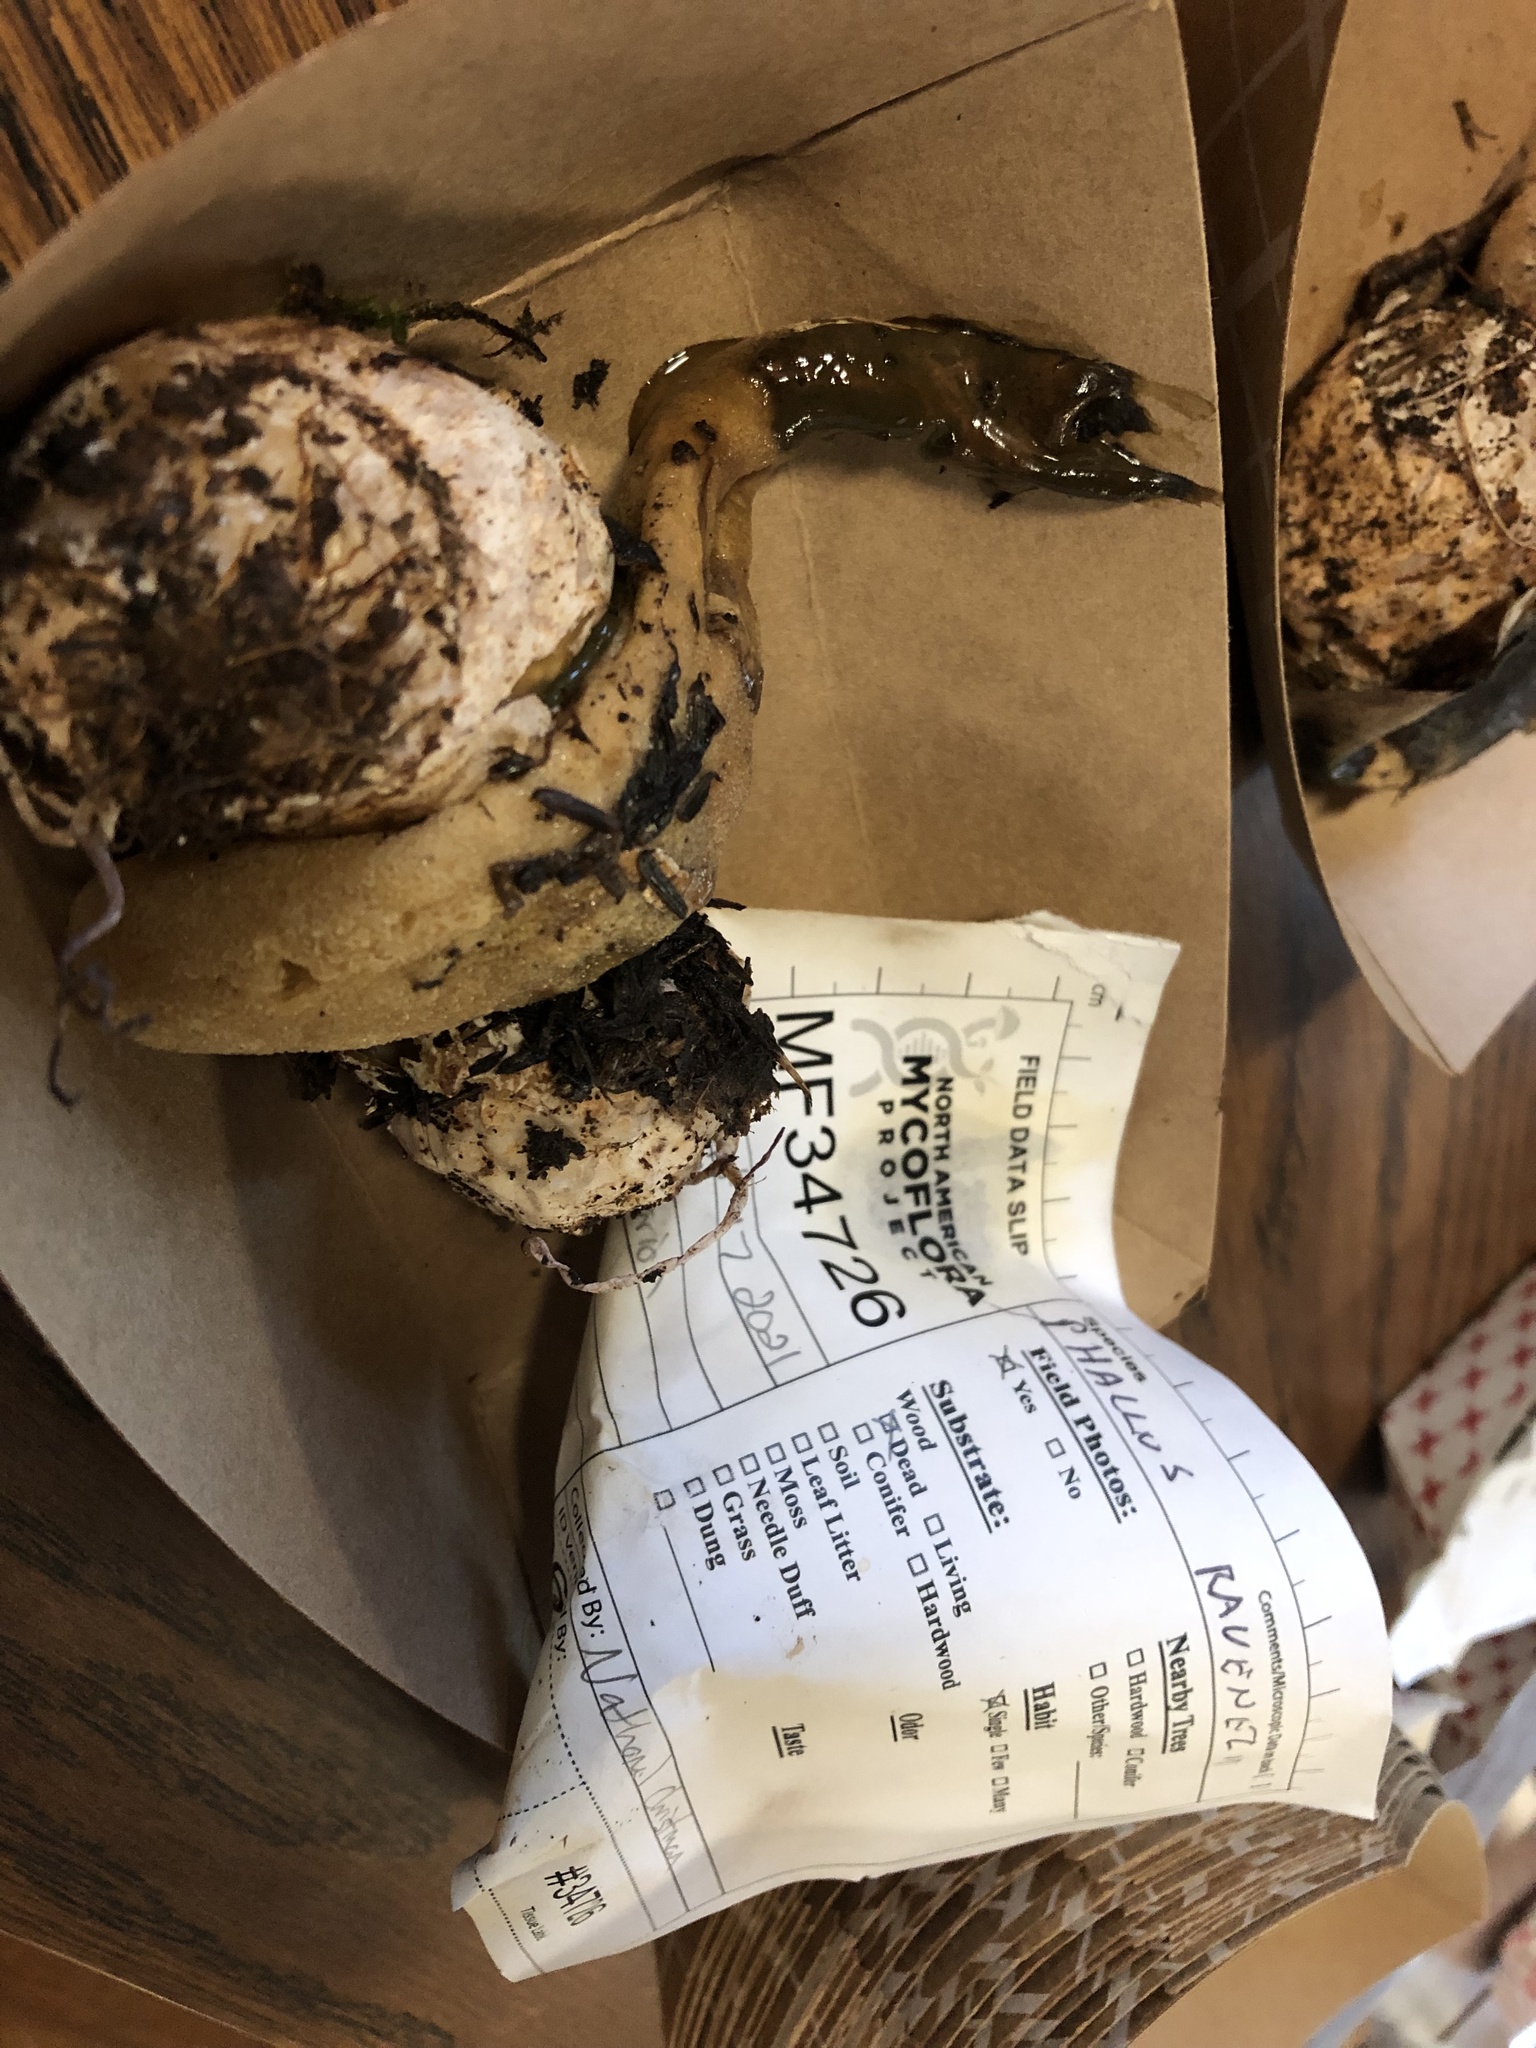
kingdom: Fungi
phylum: Basidiomycota
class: Agaricomycetes
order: Phallales
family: Phallaceae
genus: Phallus
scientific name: Phallus ravenelii
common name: Ravenel's stinkhorn
